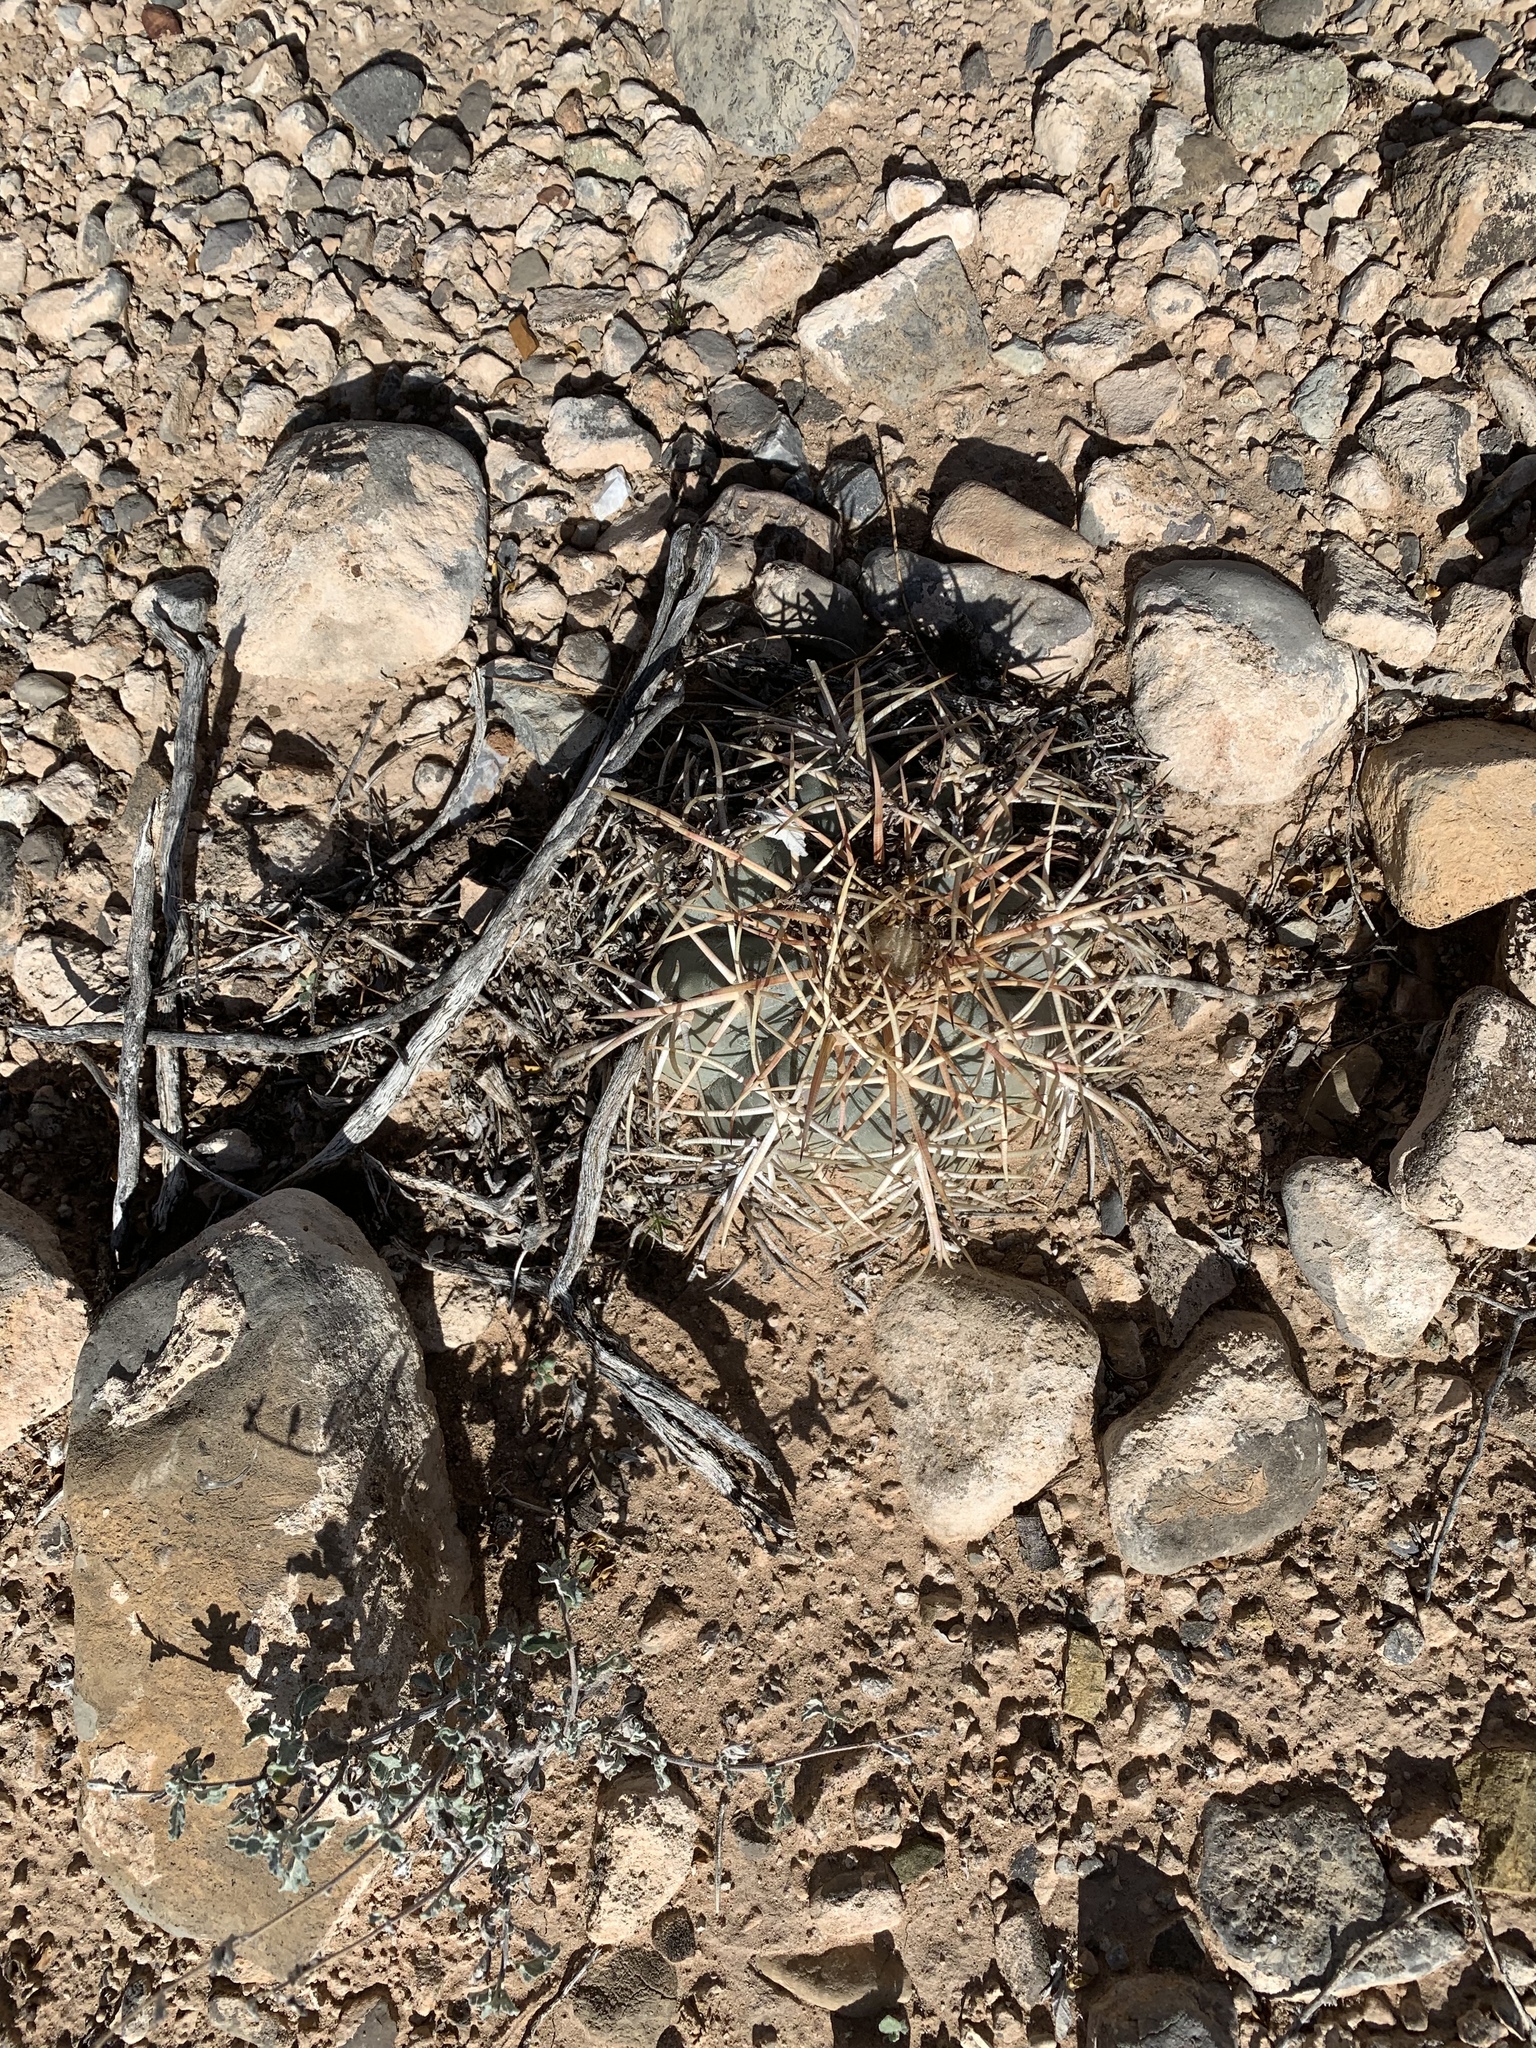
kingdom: Plantae
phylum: Tracheophyta
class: Magnoliopsida
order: Caryophyllales
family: Cactaceae
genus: Echinocactus
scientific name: Echinocactus horizonthalonius
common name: Devilshead
